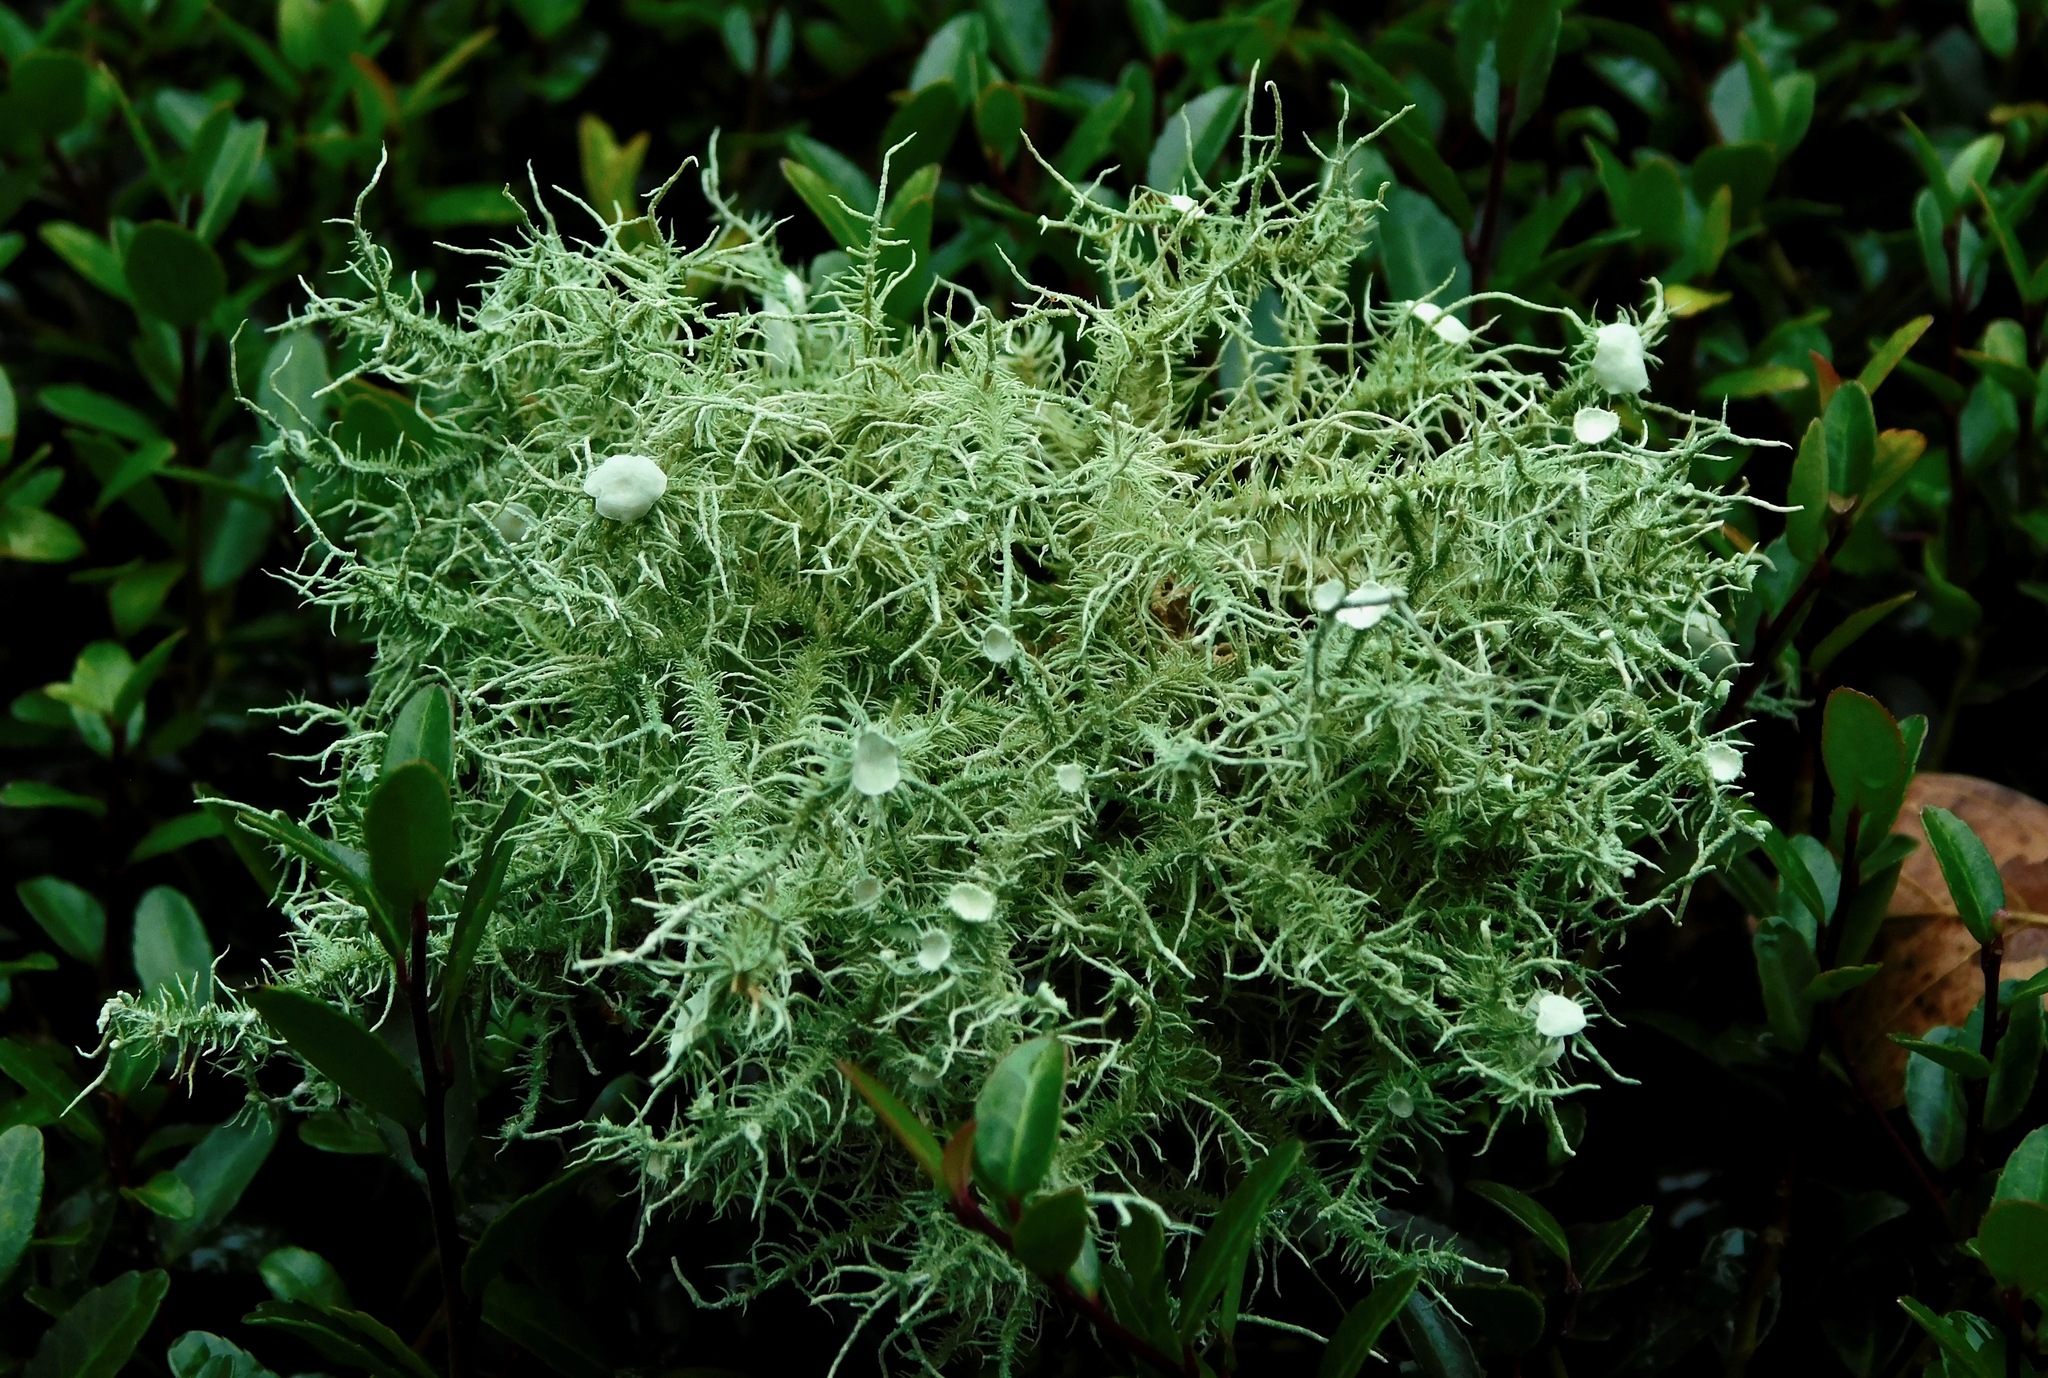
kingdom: Fungi
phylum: Ascomycota
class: Lecanoromycetes
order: Lecanorales
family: Parmeliaceae
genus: Usnea
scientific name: Usnea strigosa
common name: Bushy beard lichen
